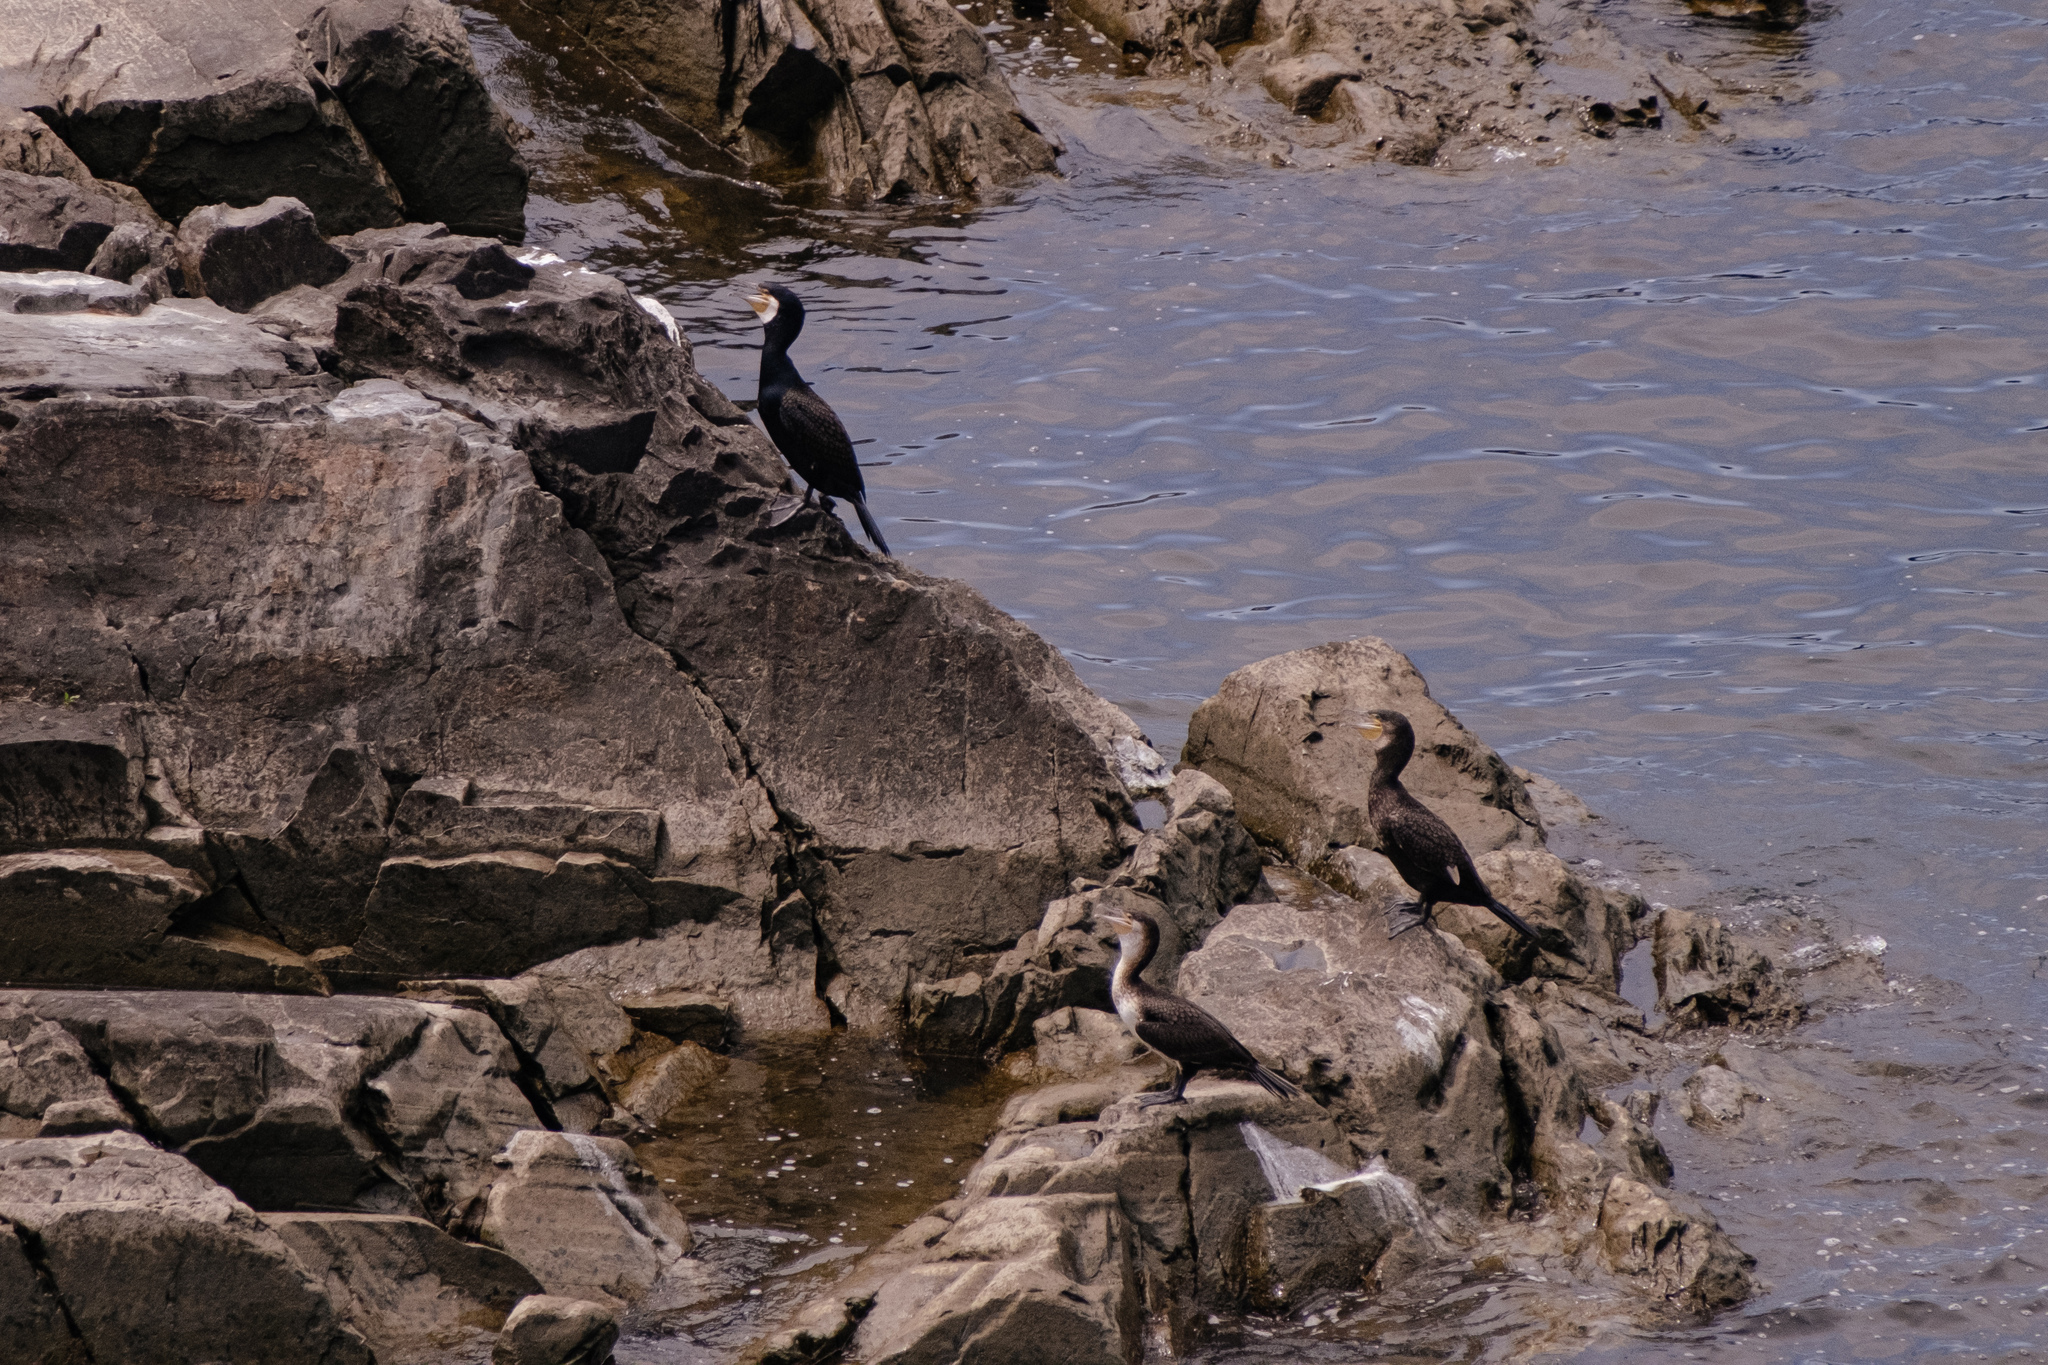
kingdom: Animalia
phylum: Chordata
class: Aves
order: Suliformes
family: Phalacrocoracidae
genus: Phalacrocorax
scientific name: Phalacrocorax carbo
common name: Great cormorant
